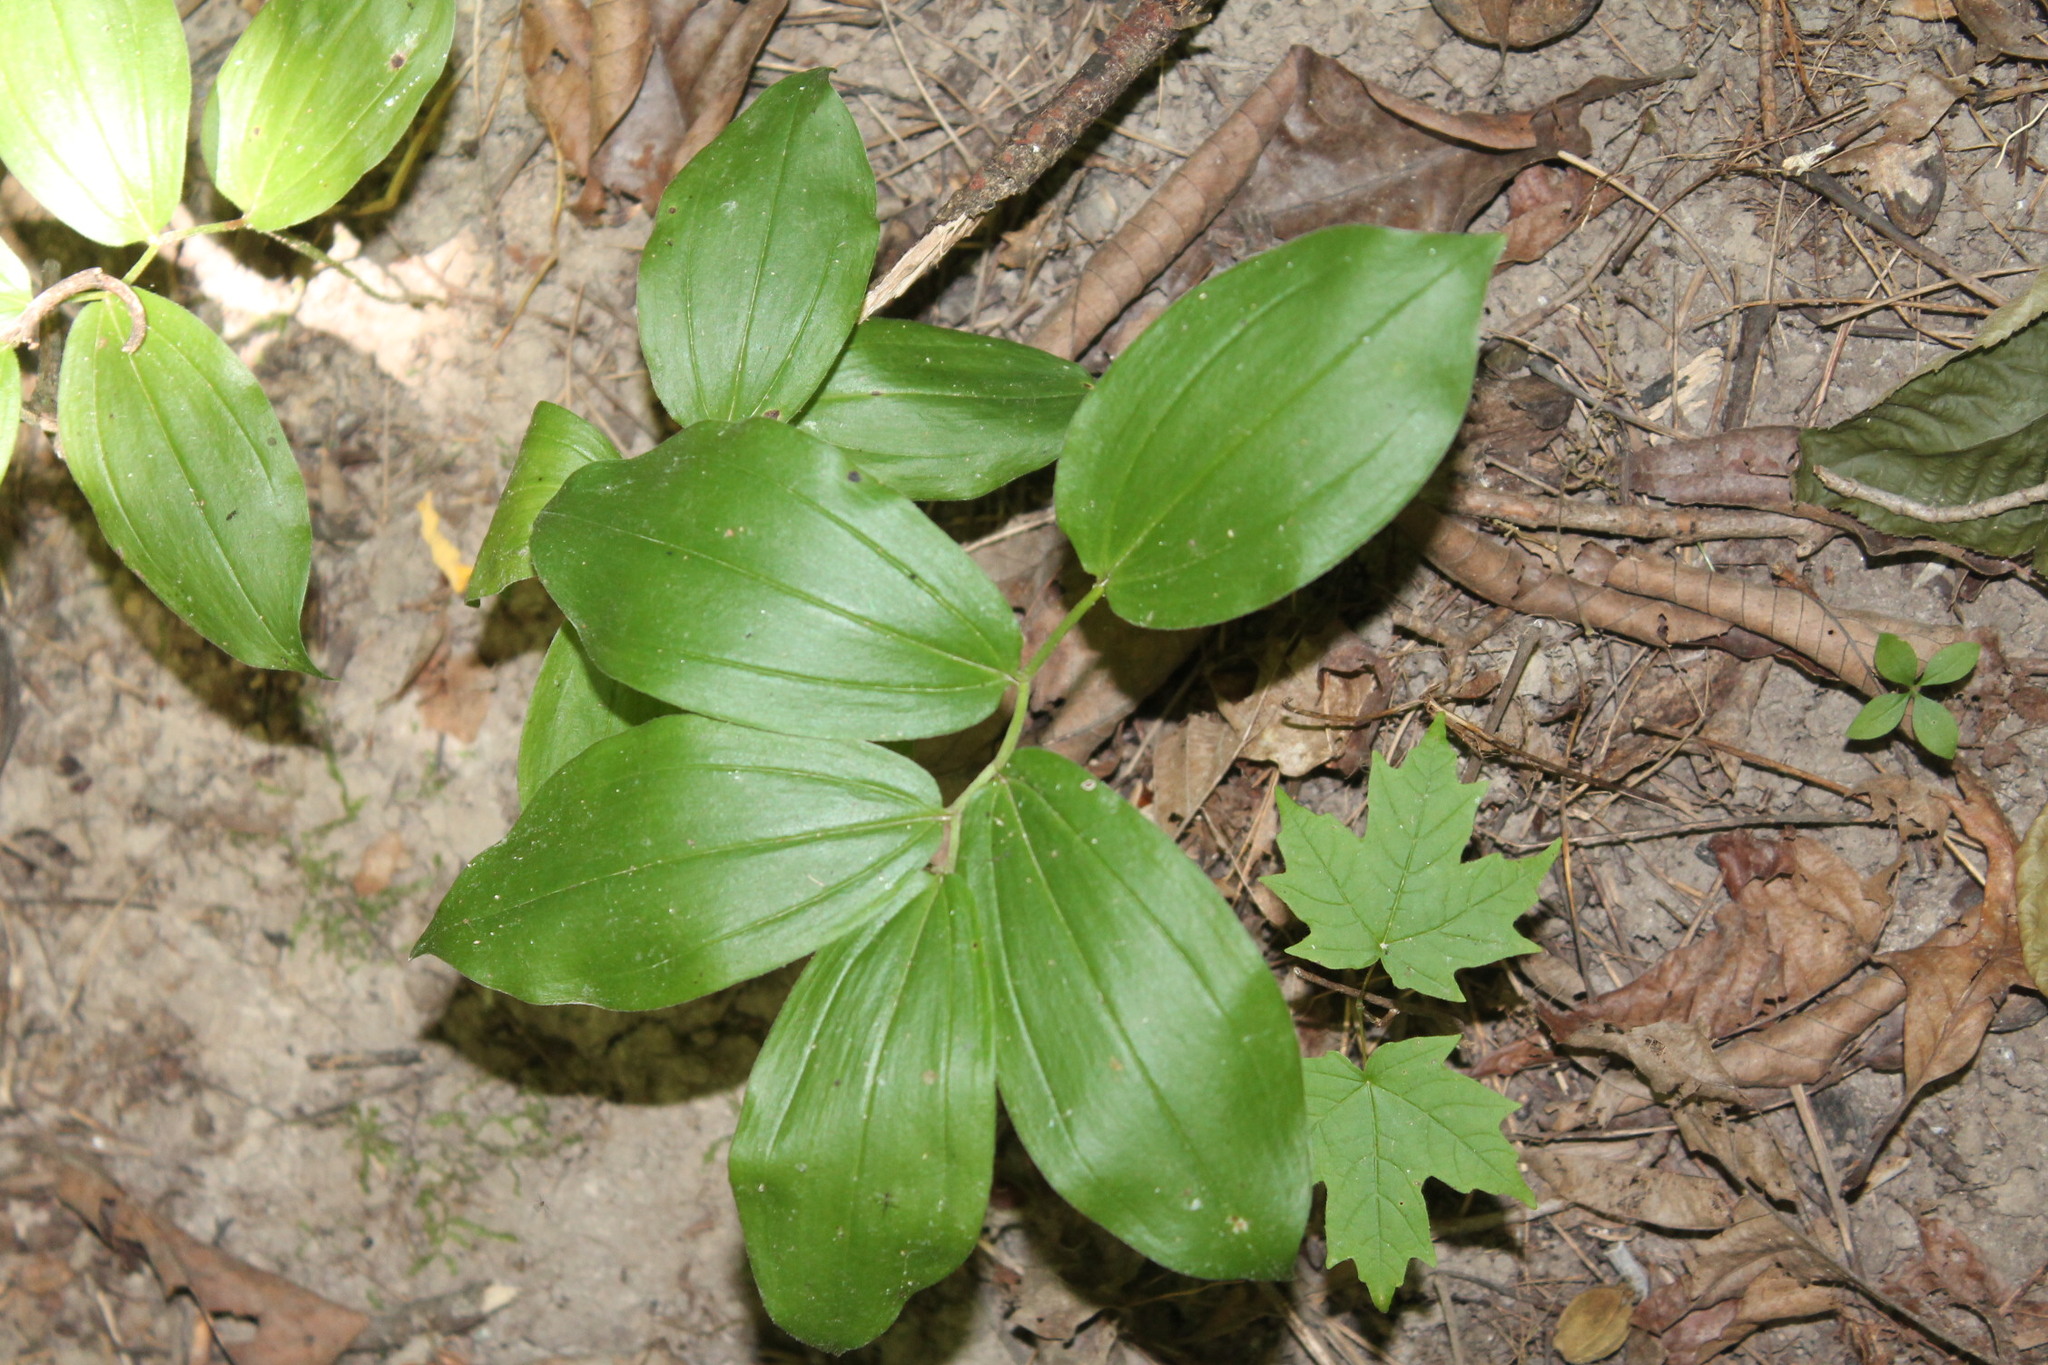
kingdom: Plantae
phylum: Tracheophyta
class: Liliopsida
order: Asparagales
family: Asparagaceae
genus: Maianthemum
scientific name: Maianthemum racemosum
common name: False spikenard
